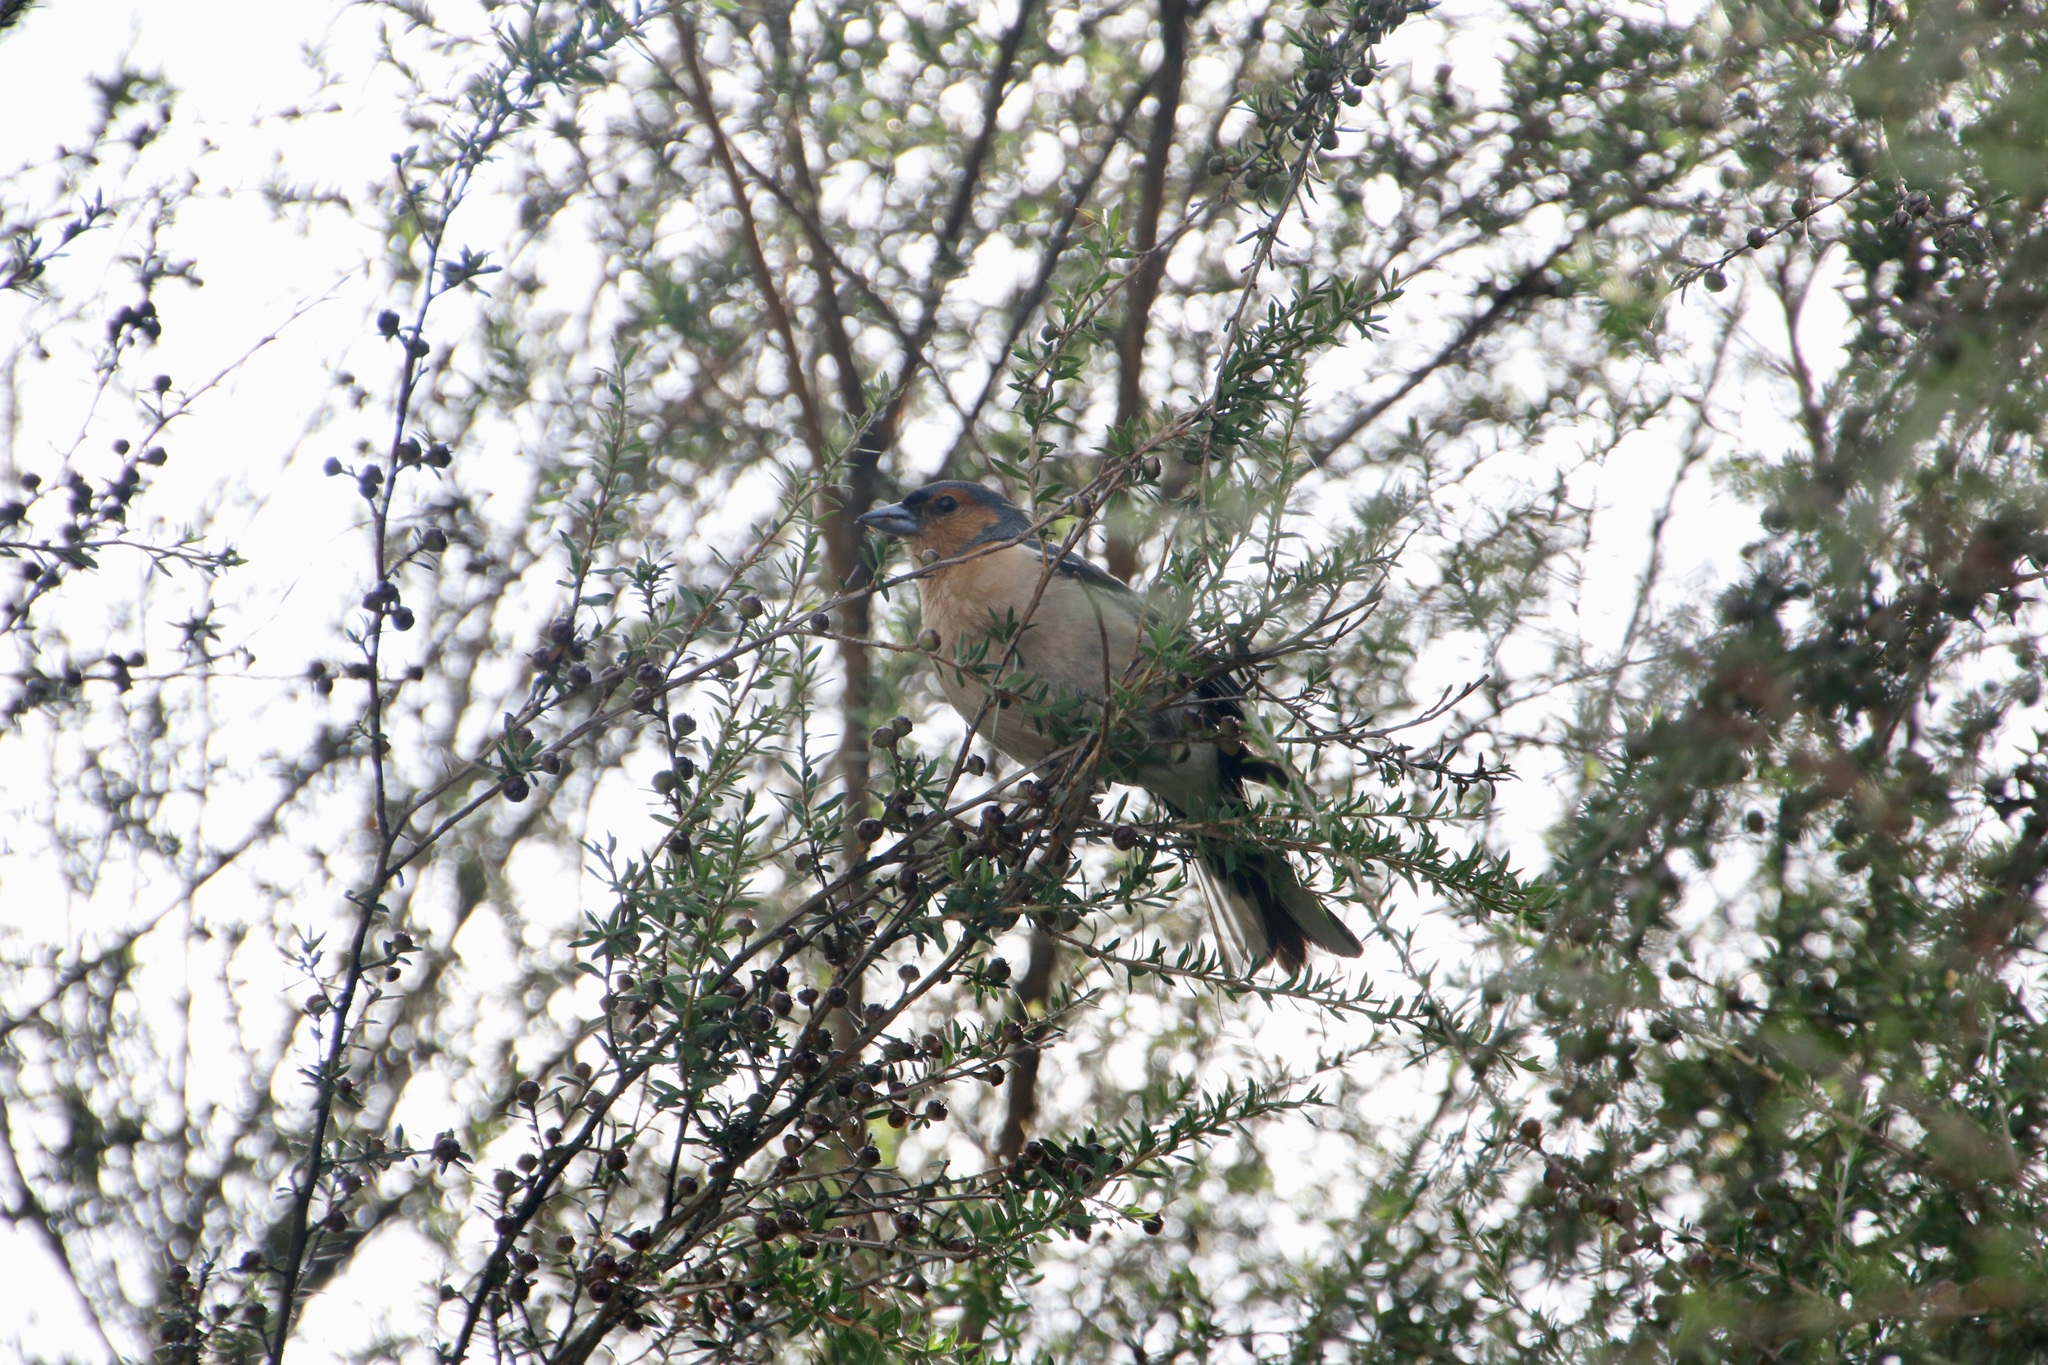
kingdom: Animalia
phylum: Chordata
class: Aves
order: Passeriformes
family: Fringillidae
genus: Fringilla
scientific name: Fringilla coelebs
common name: Common chaffinch
